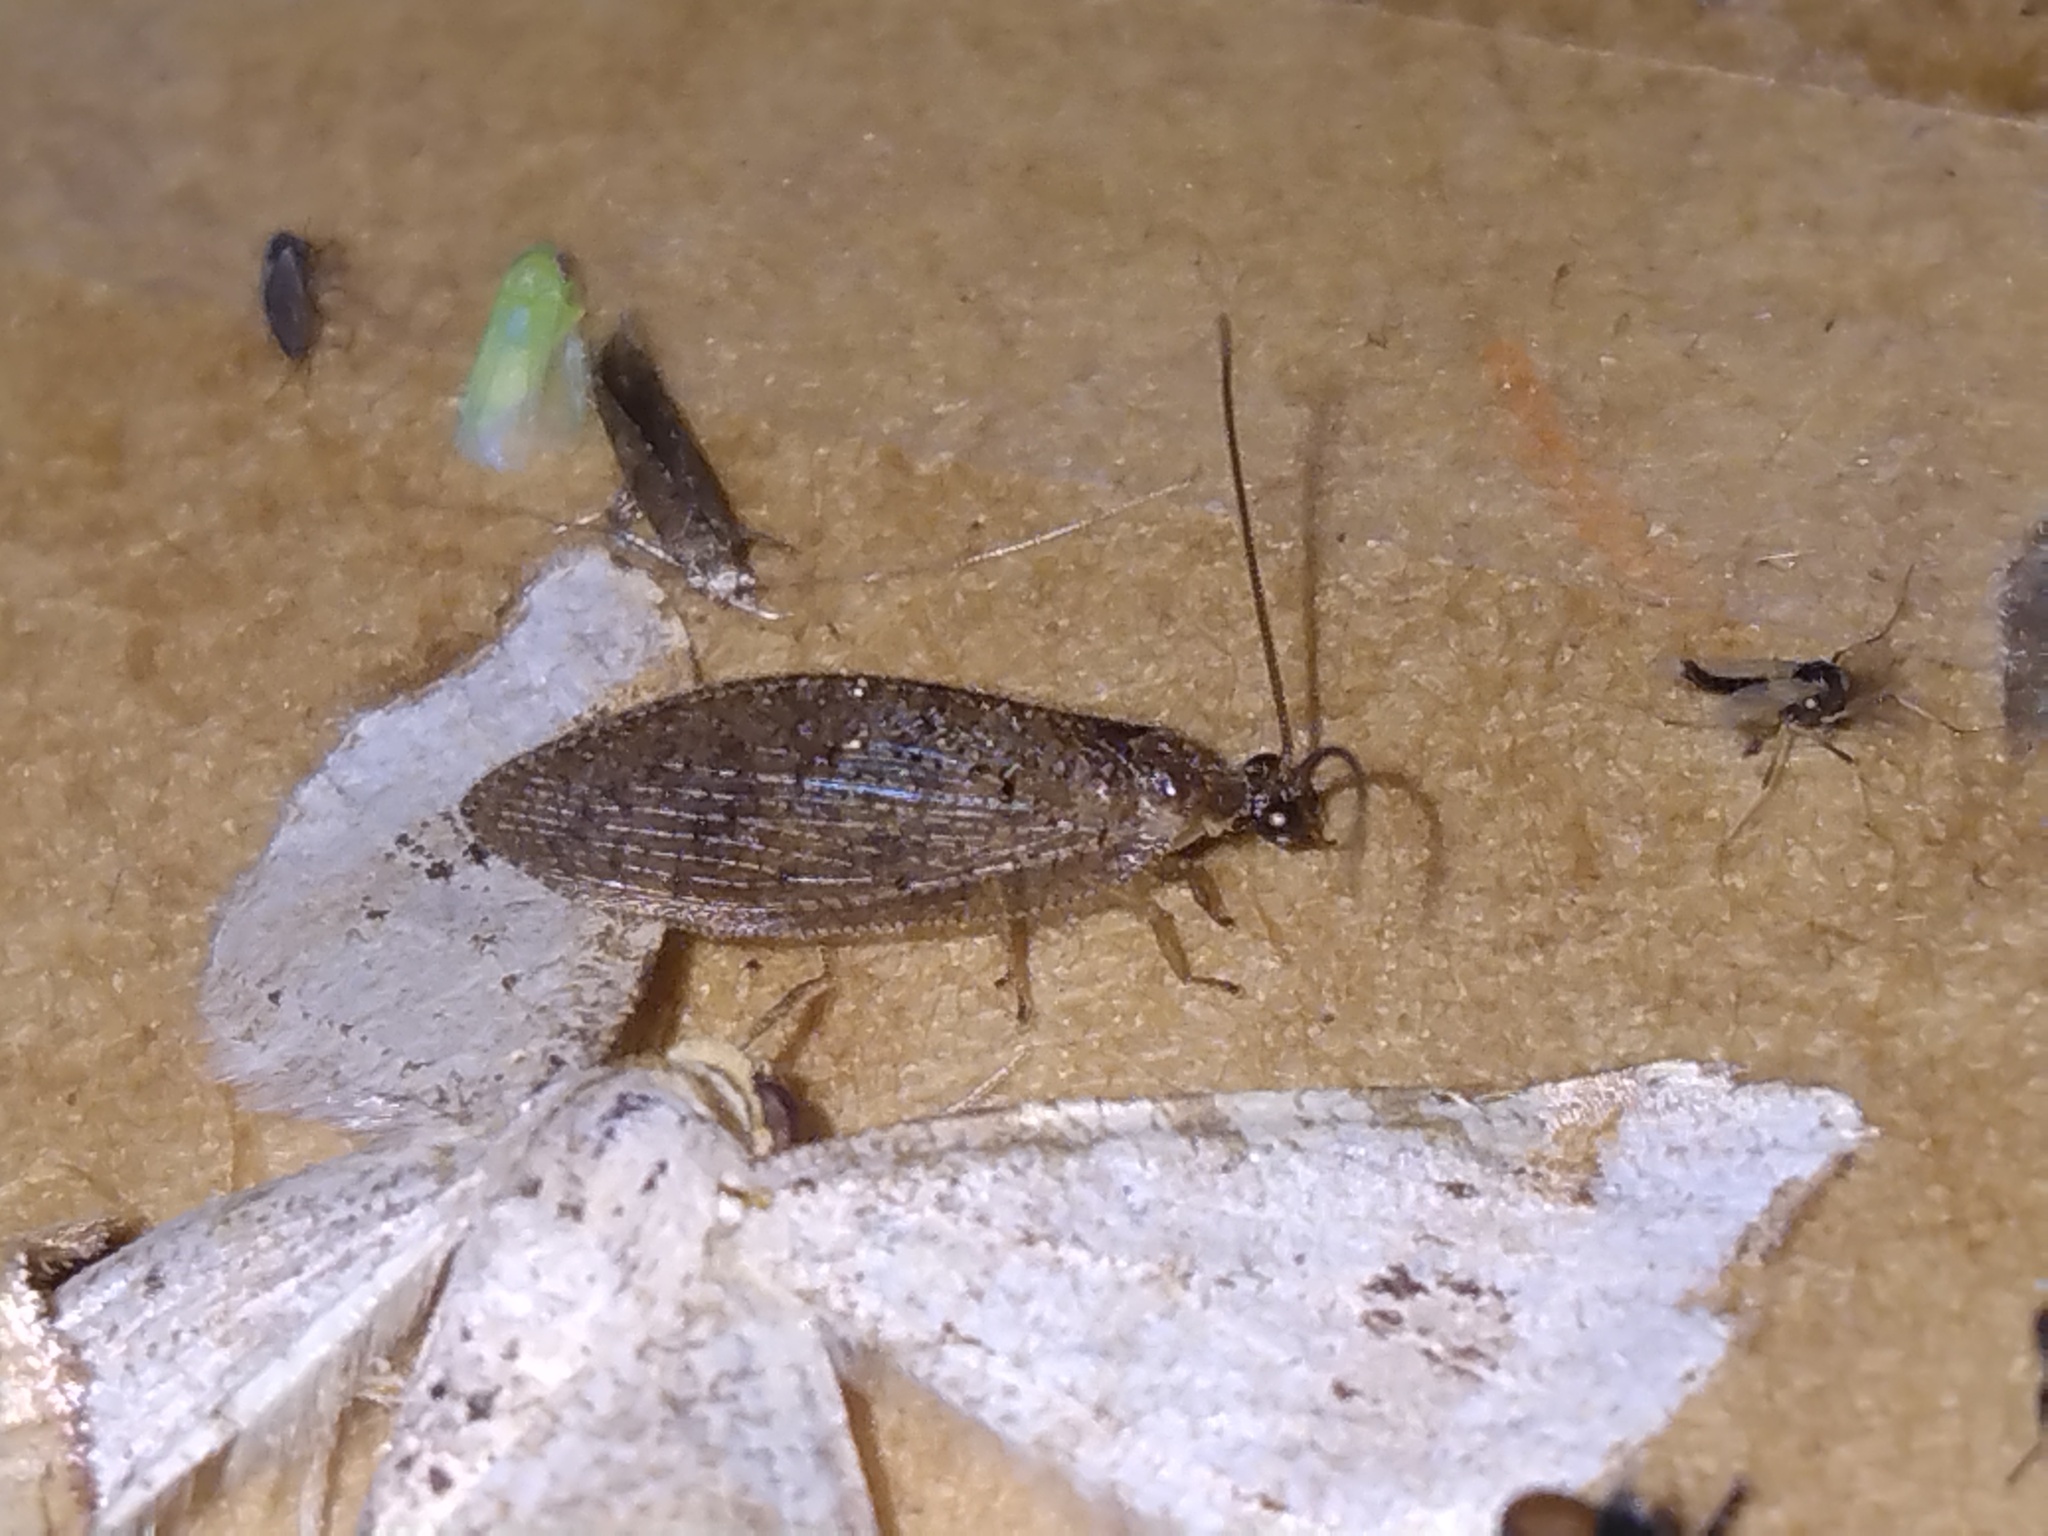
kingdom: Animalia
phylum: Arthropoda
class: Insecta
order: Neuroptera
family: Hemerobiidae
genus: Hemerobius
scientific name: Hemerobius stigma
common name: Brown pine lacewing
